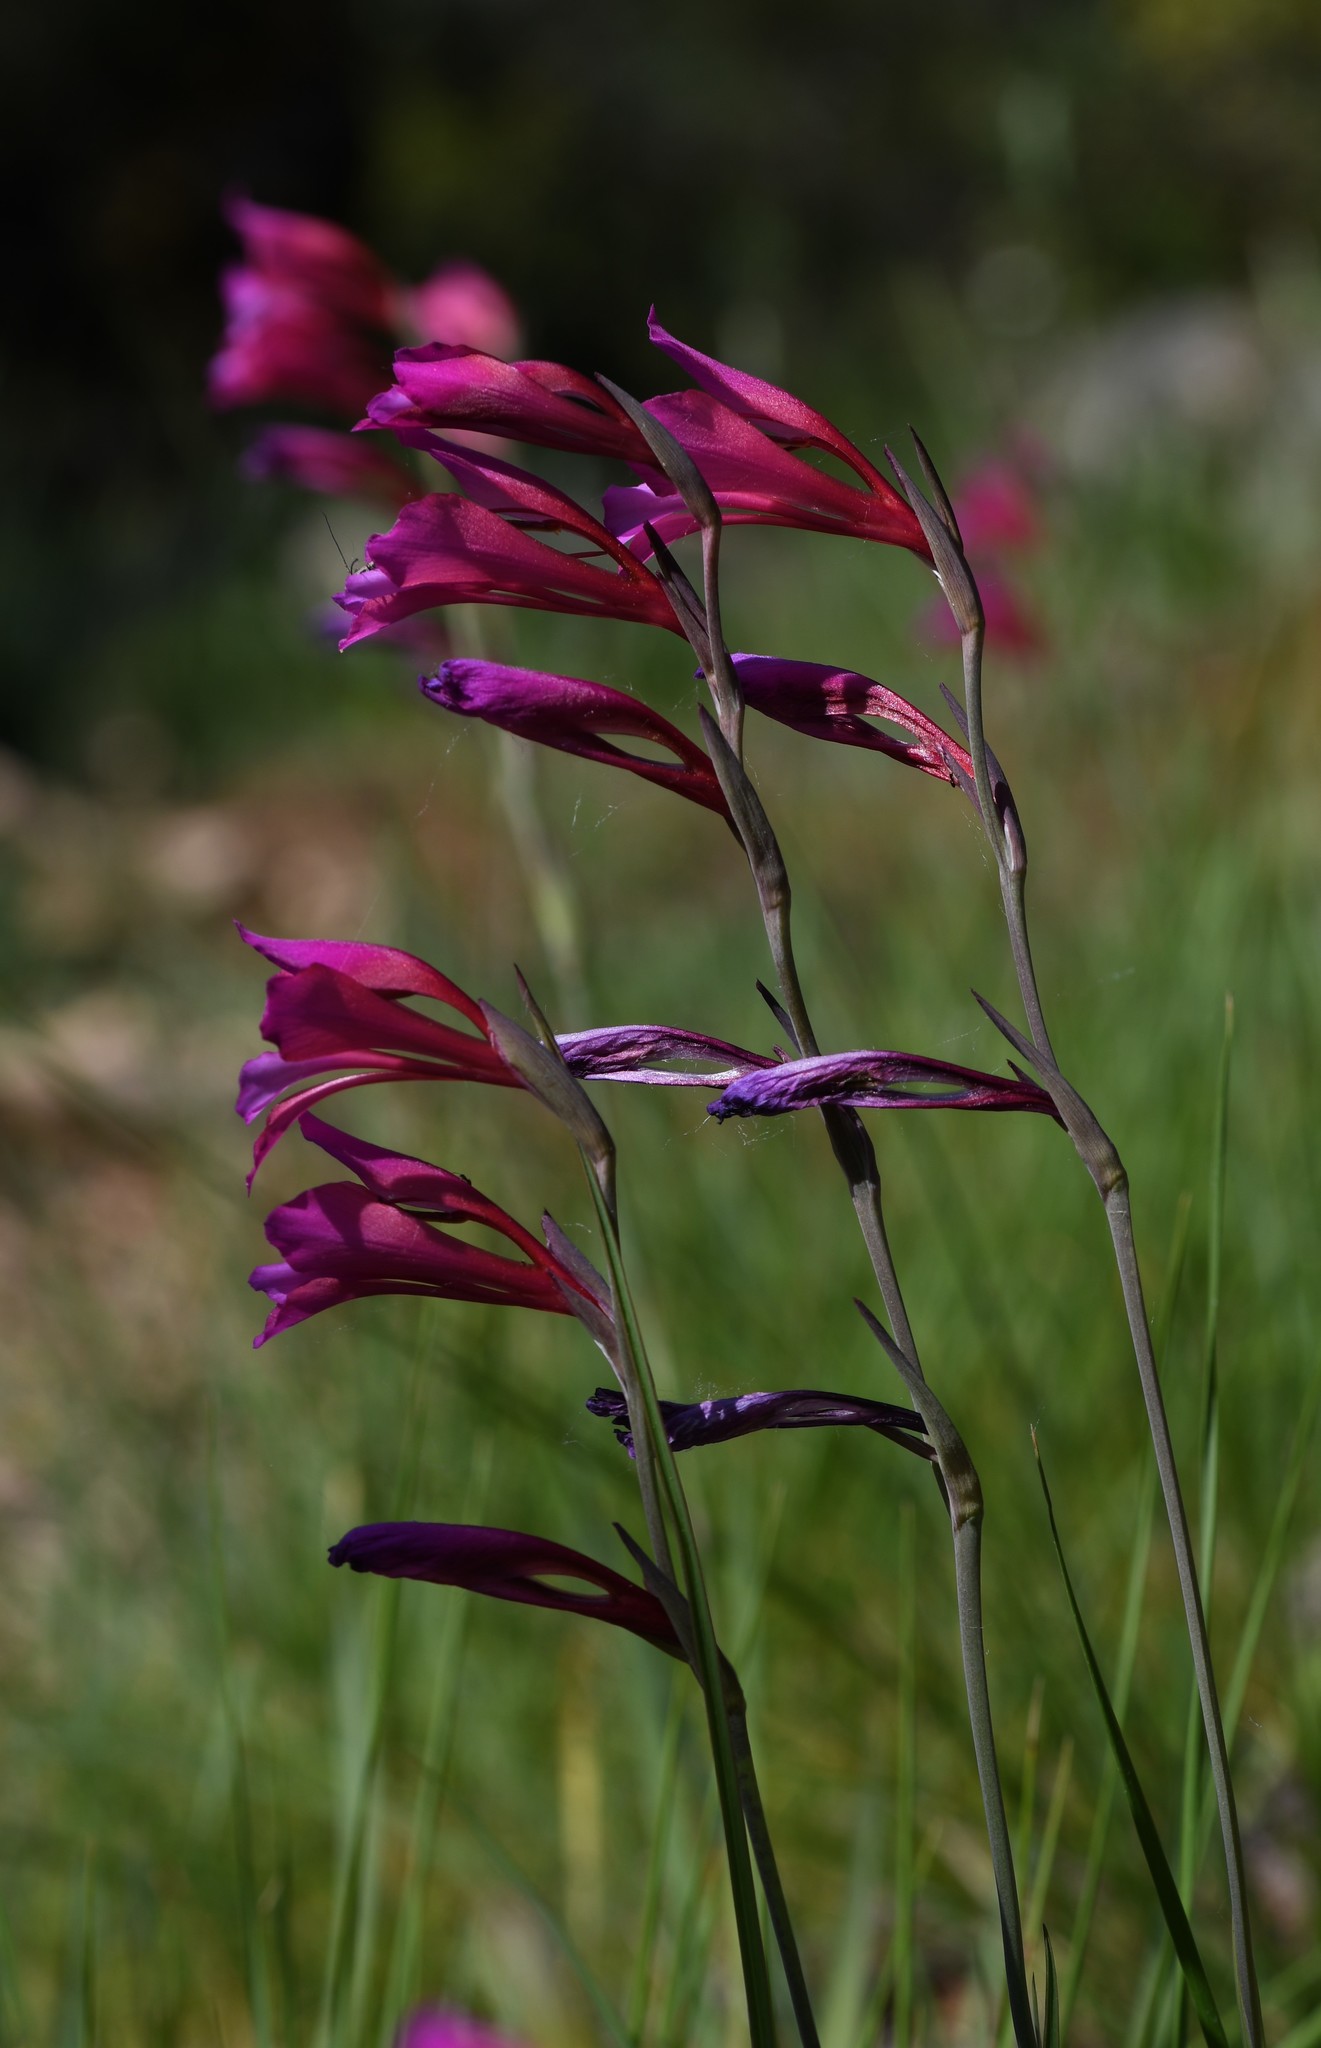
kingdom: Plantae
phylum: Tracheophyta
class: Liliopsida
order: Asparagales
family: Iridaceae
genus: Gladiolus
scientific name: Gladiolus italicus
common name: Field gladiolus
